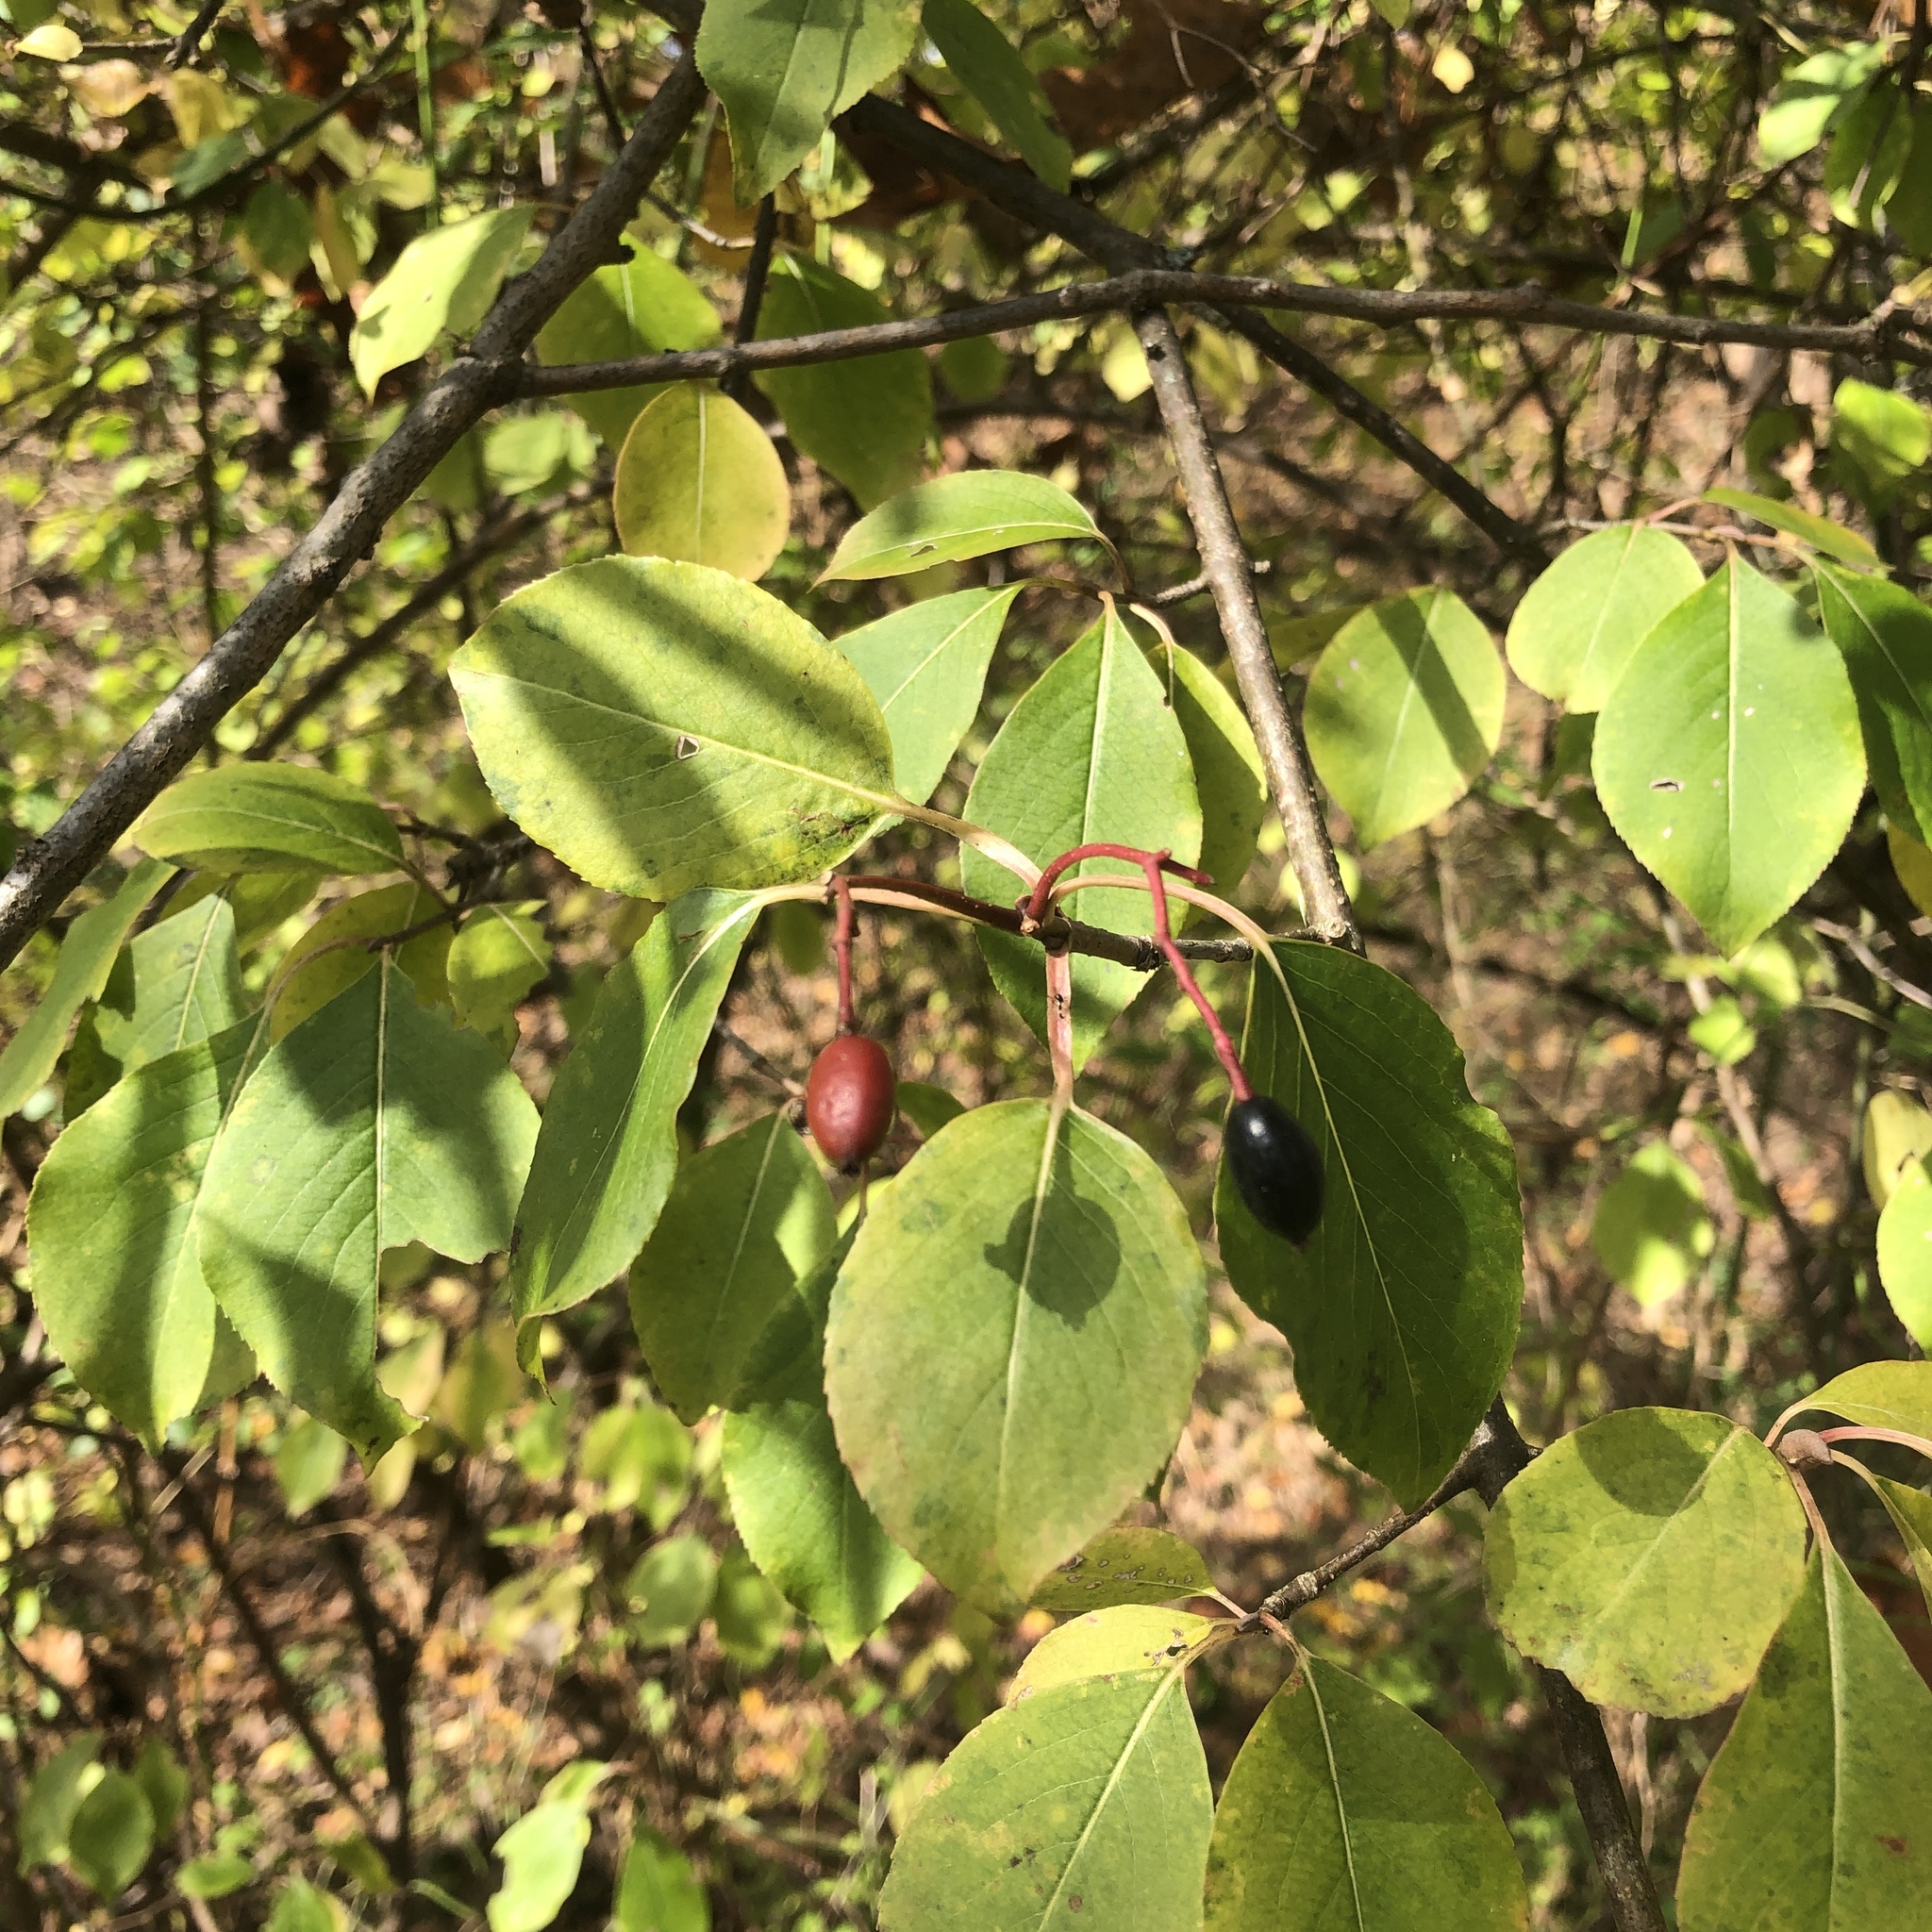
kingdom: Plantae
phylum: Tracheophyta
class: Magnoliopsida
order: Dipsacales
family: Viburnaceae
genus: Viburnum
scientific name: Viburnum prunifolium
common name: Black haw
